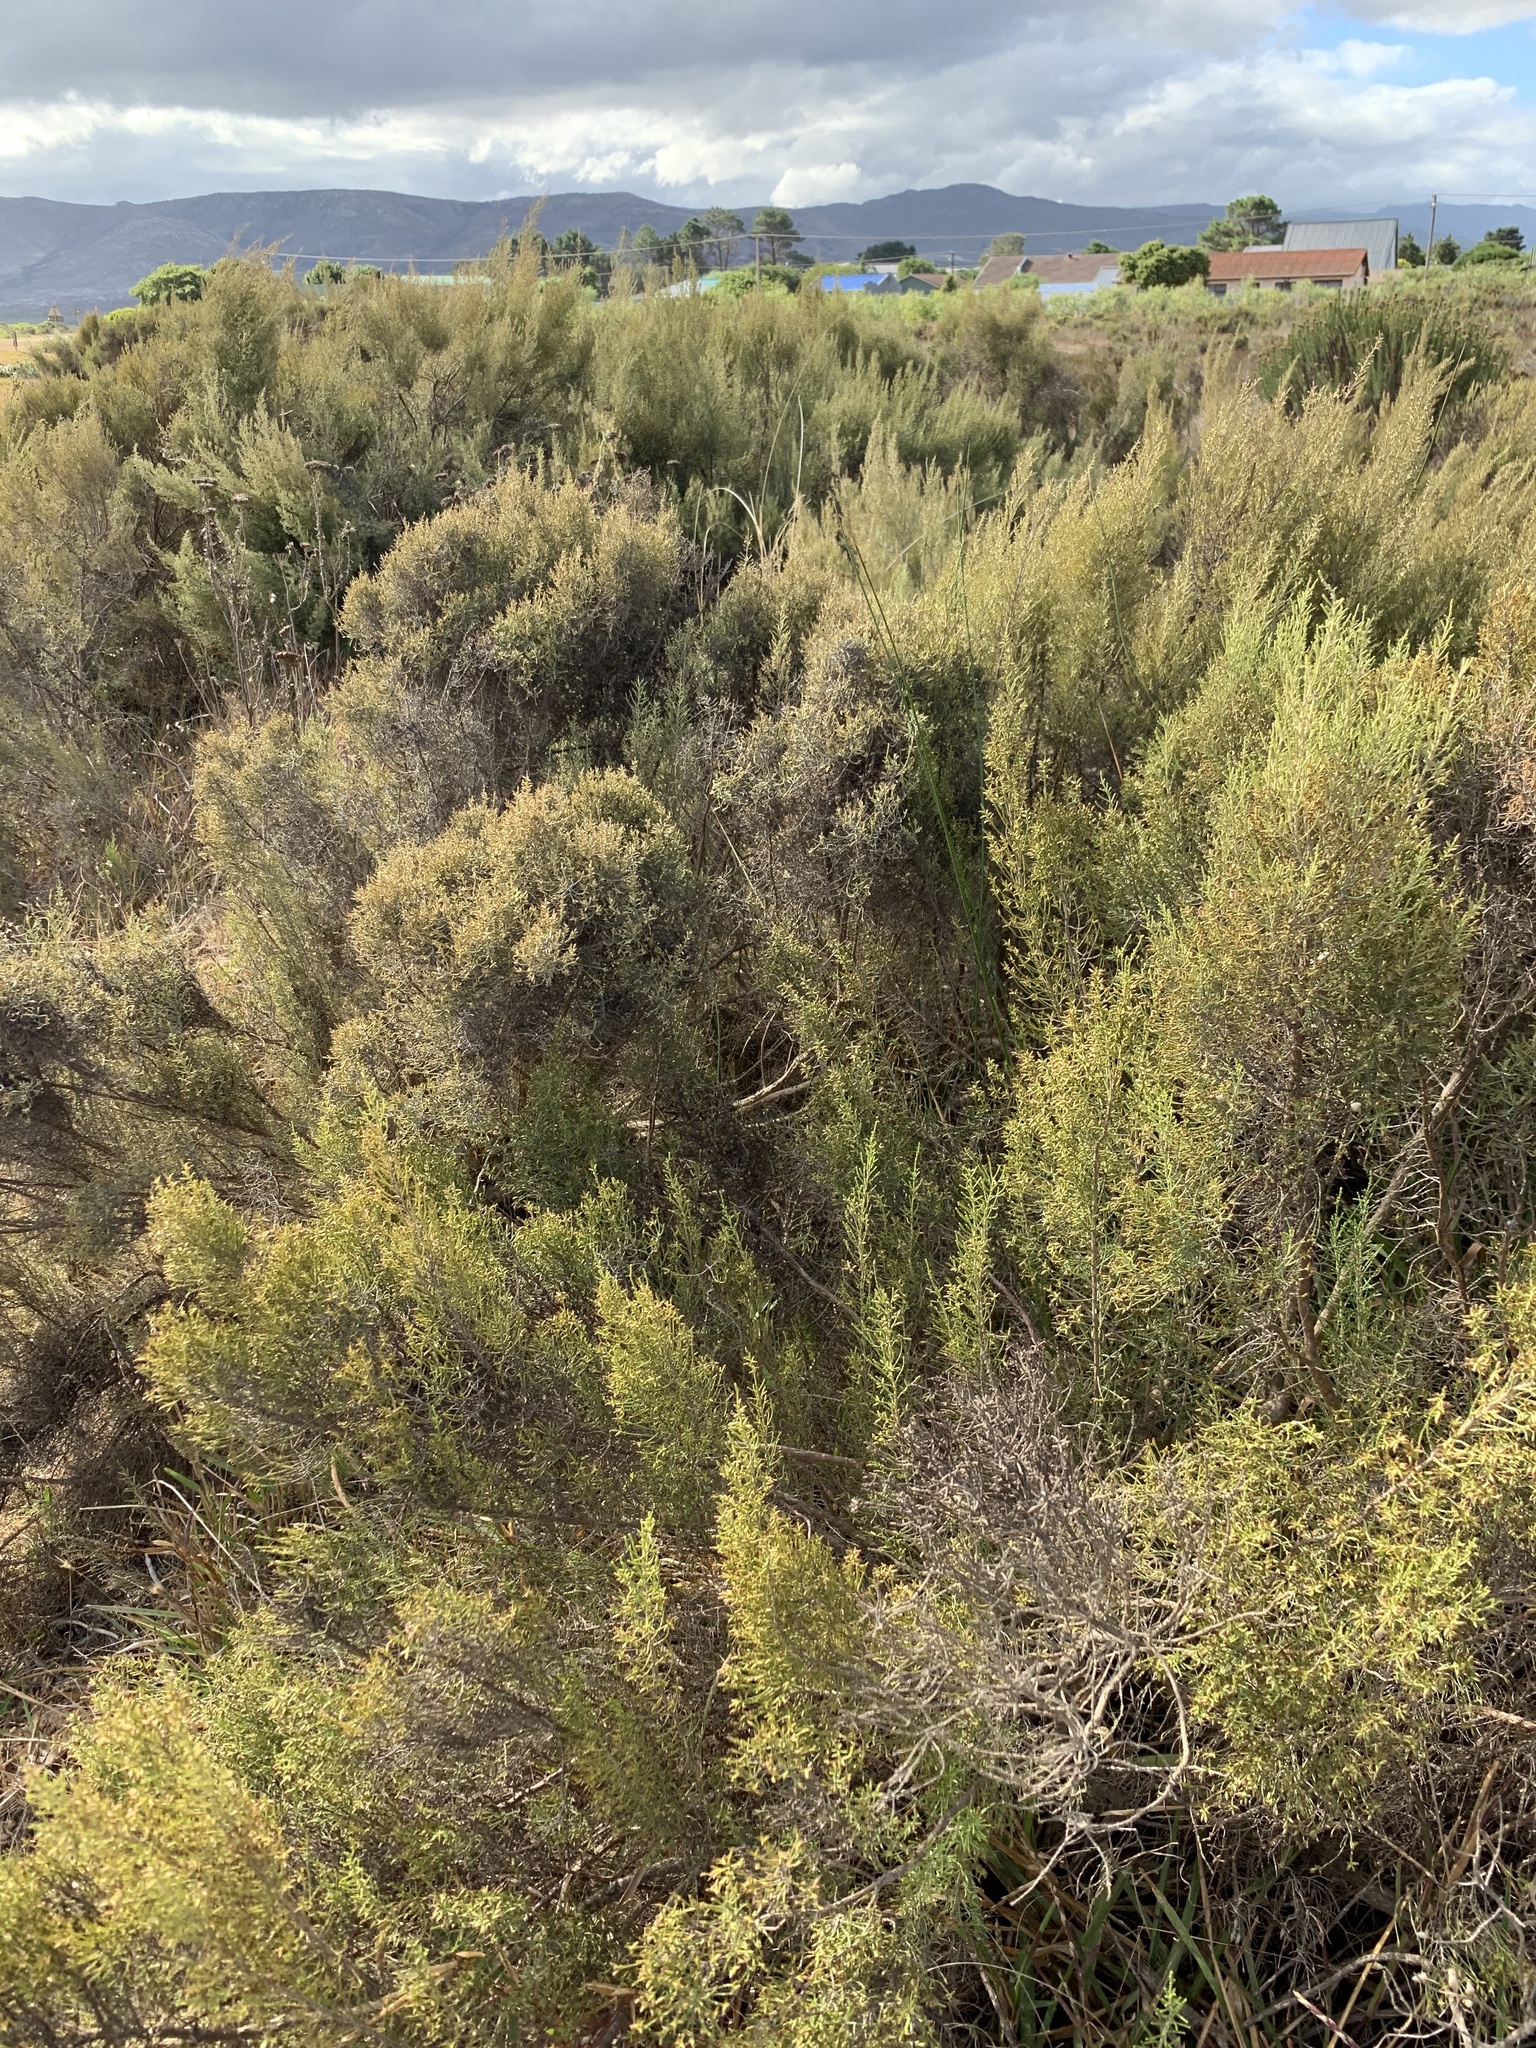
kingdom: Plantae
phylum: Tracheophyta
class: Magnoliopsida
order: Asterales
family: Asteraceae
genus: Dicerothamnus
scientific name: Dicerothamnus rhinocerotis
